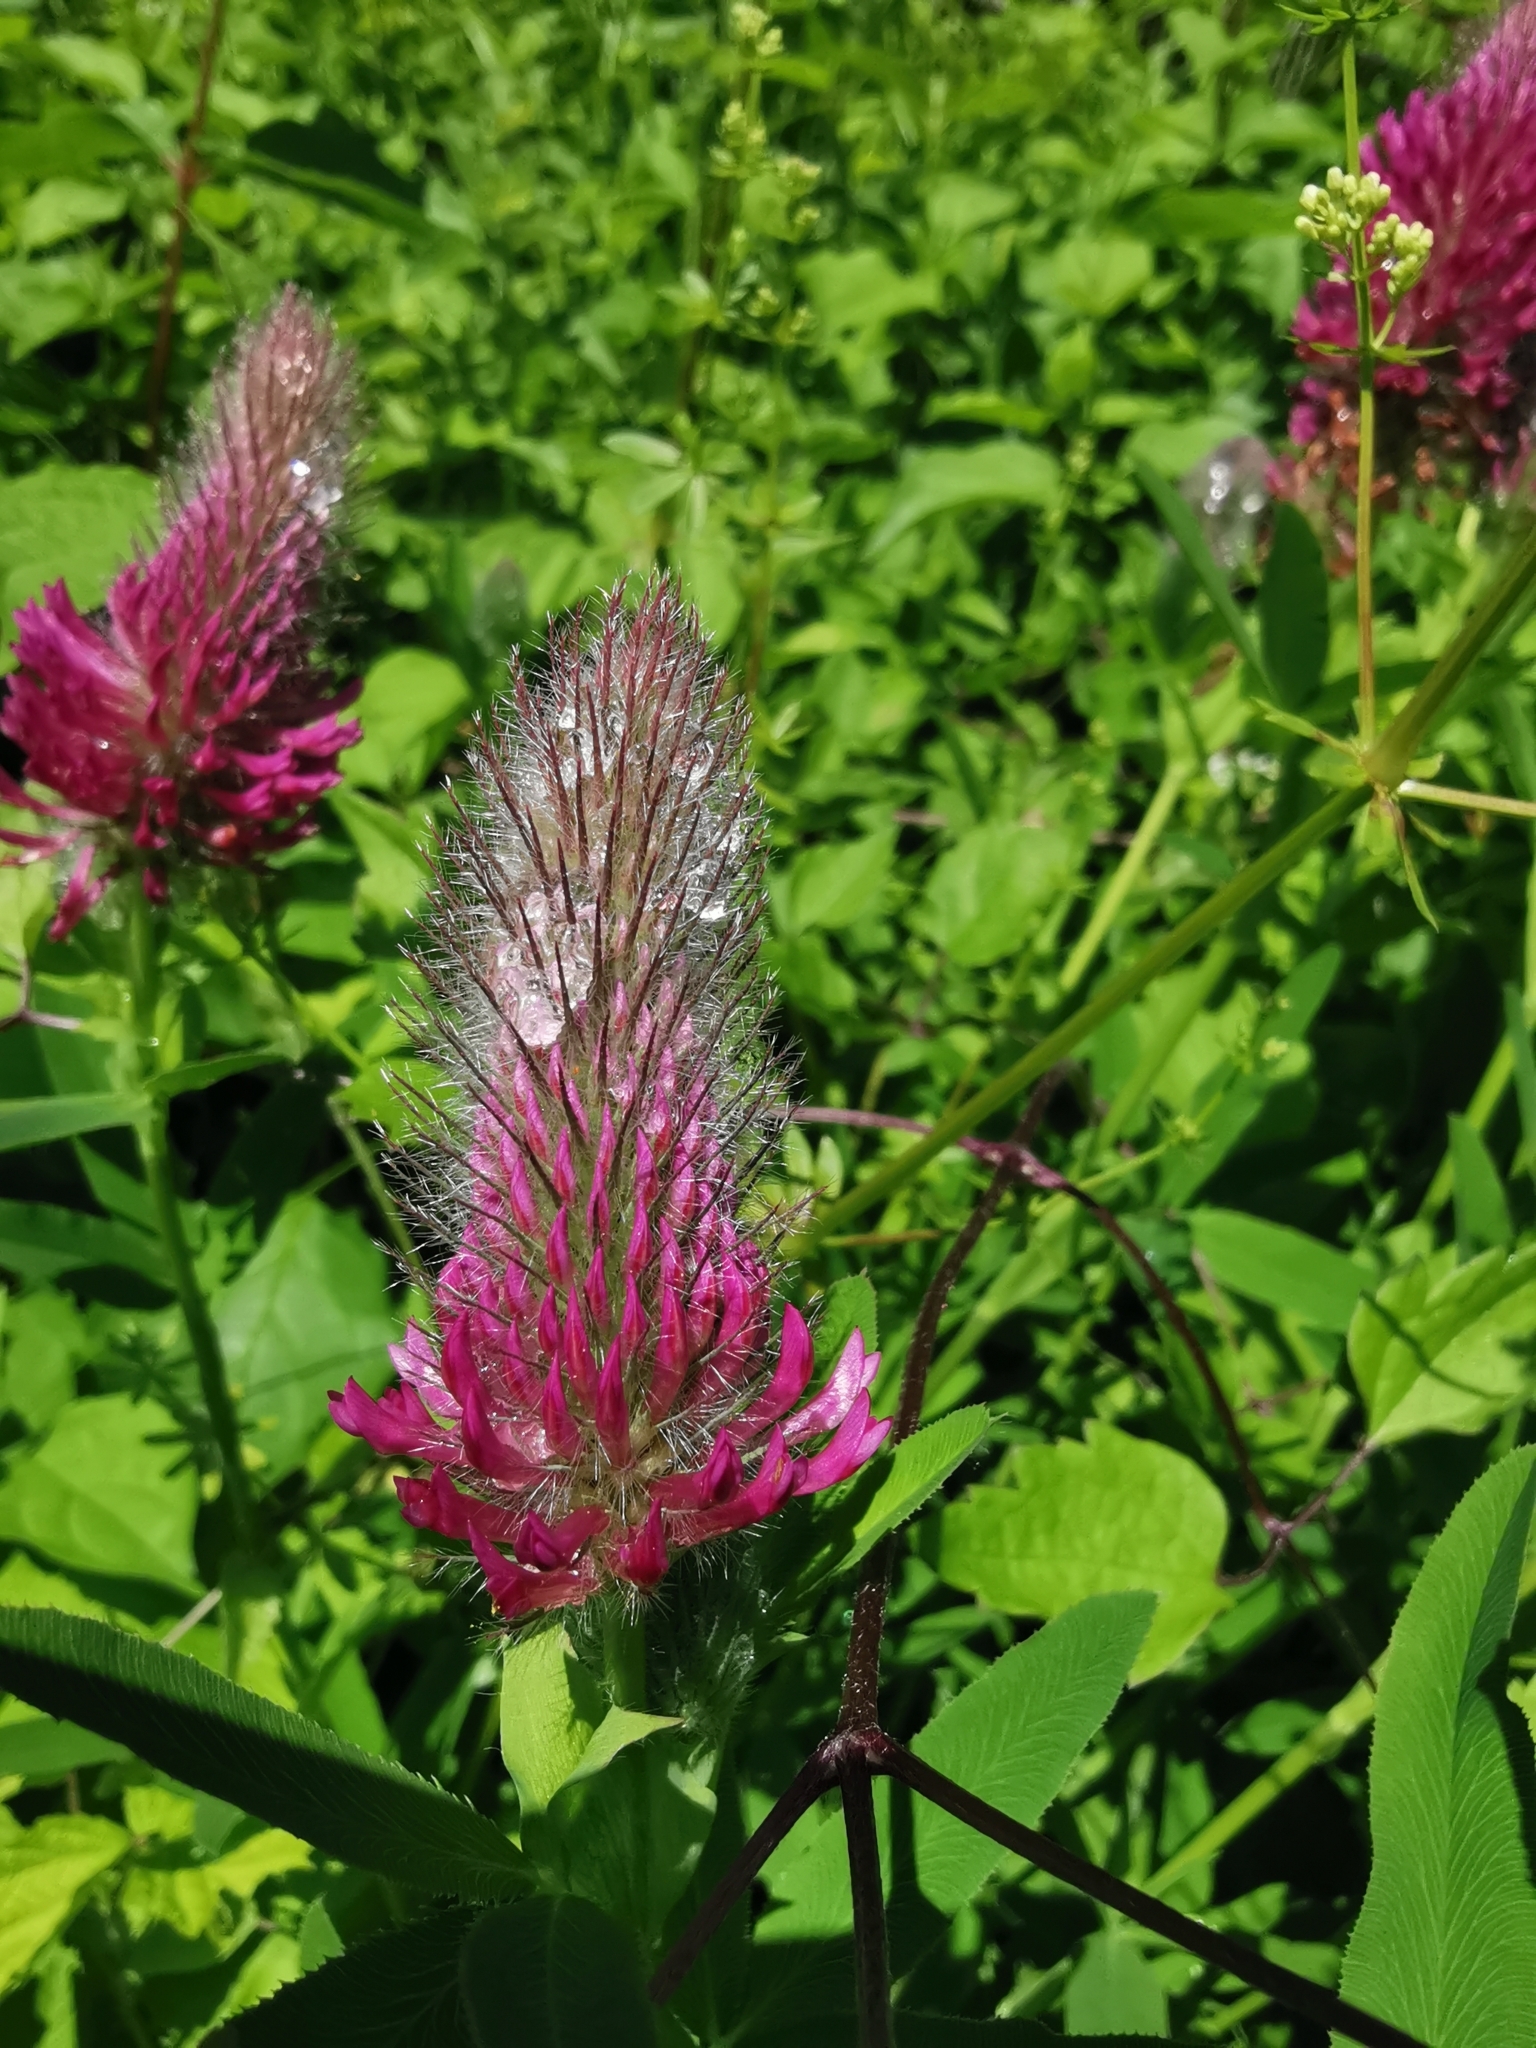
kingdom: Plantae
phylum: Tracheophyta
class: Magnoliopsida
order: Fabales
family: Fabaceae
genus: Trifolium
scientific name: Trifolium rubens
